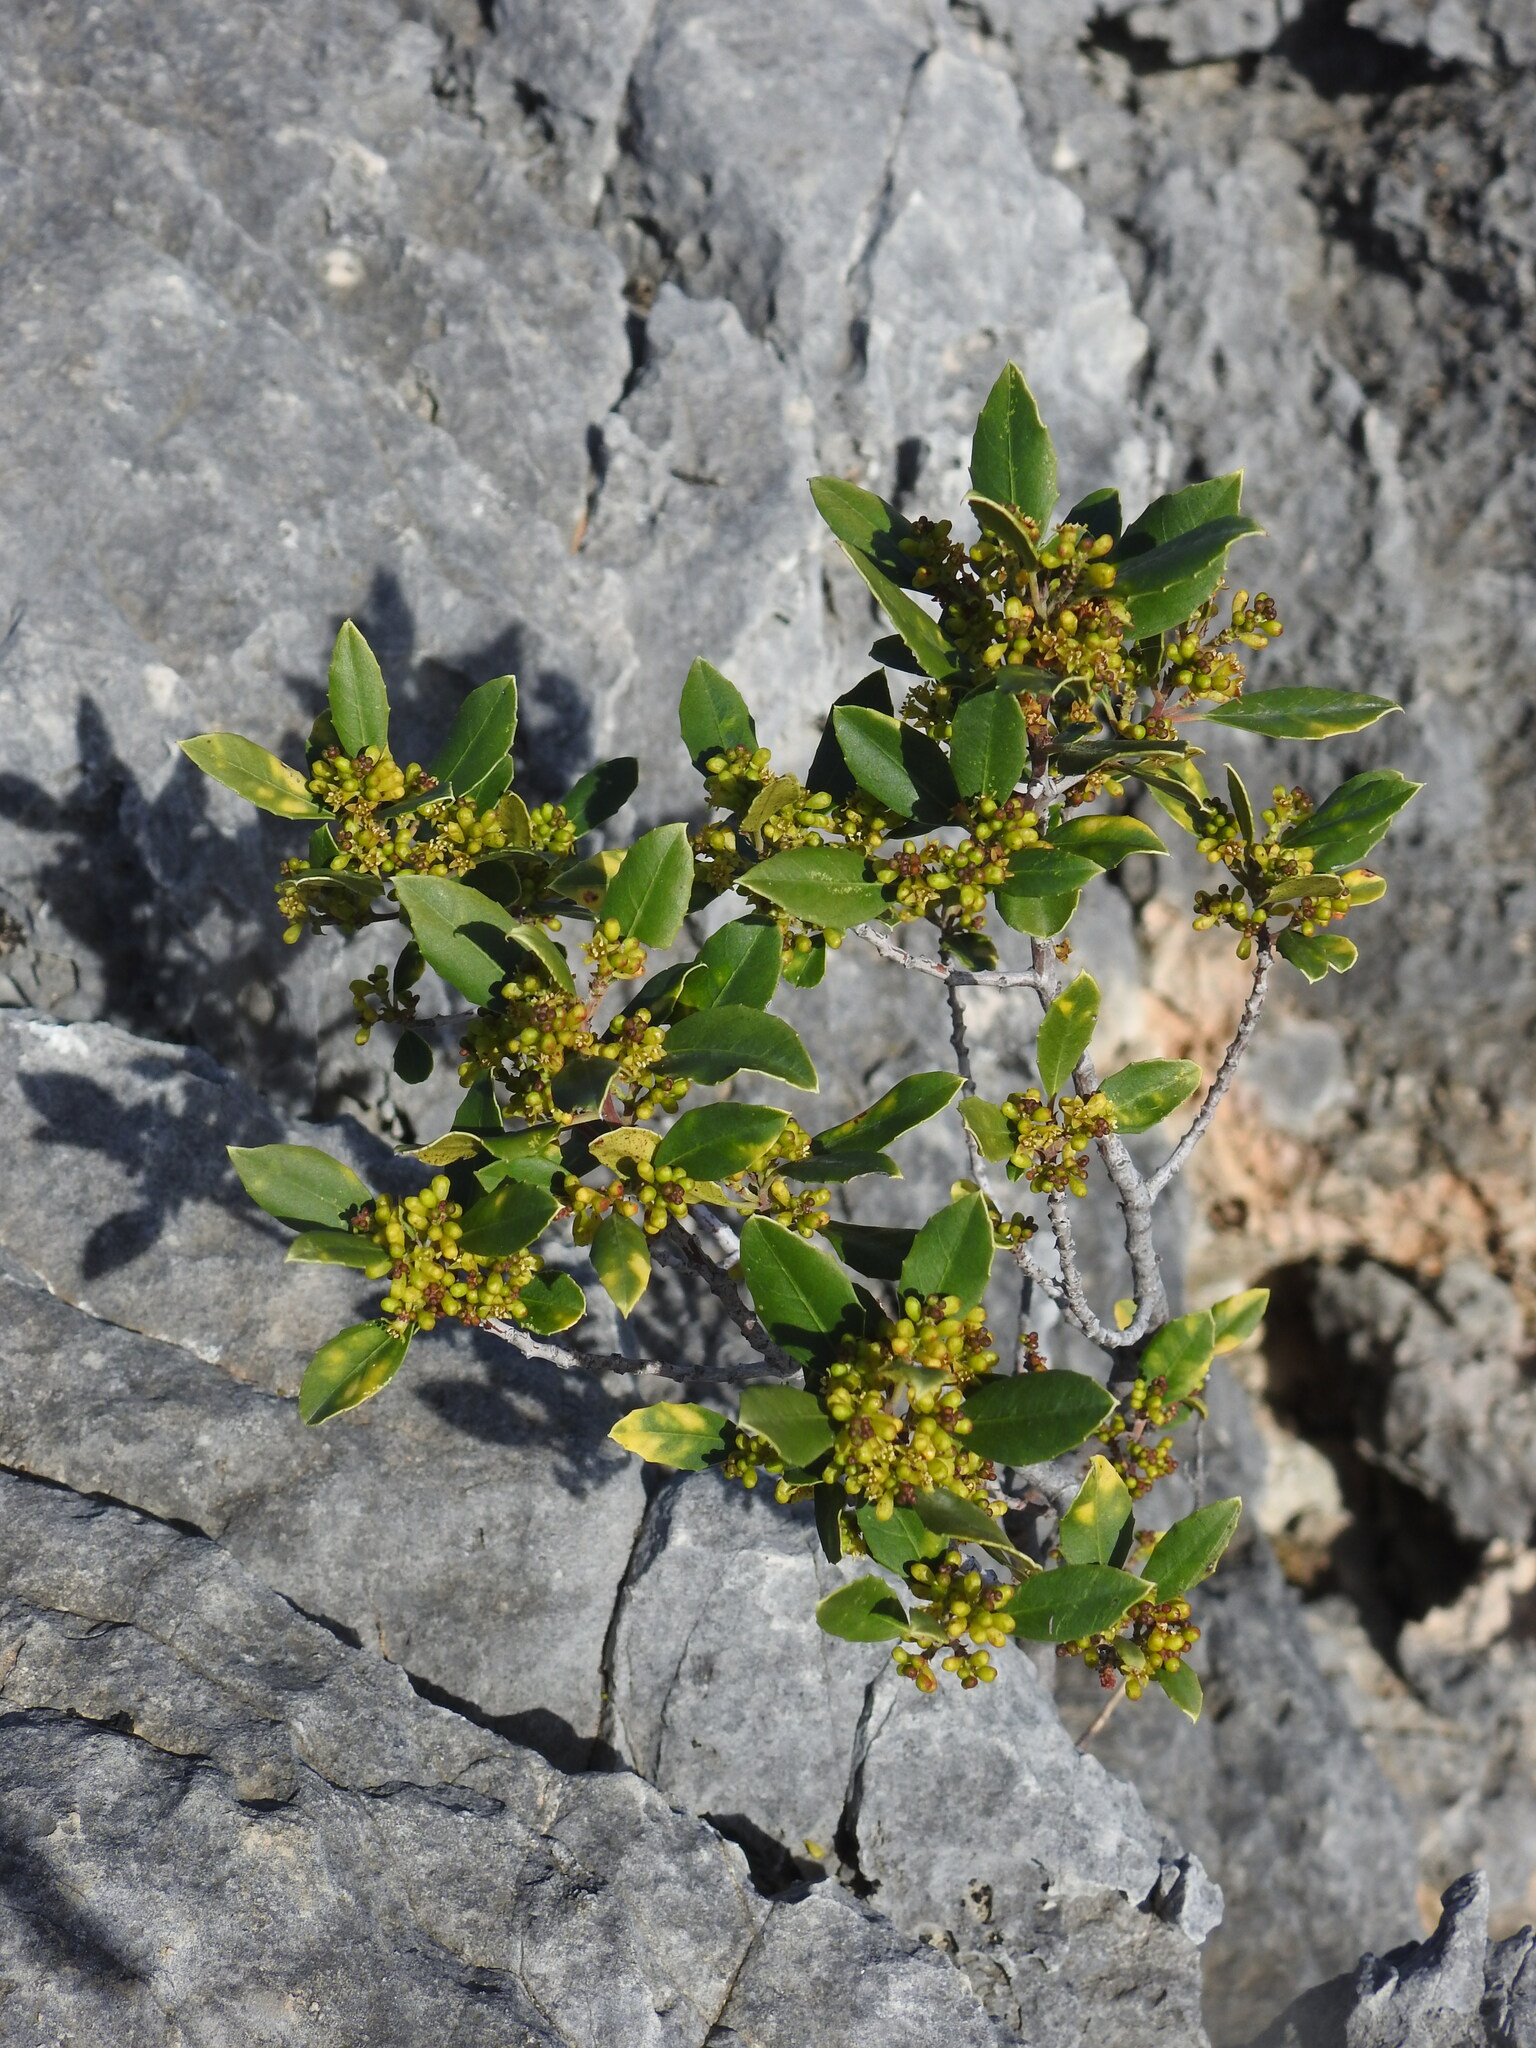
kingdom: Plantae
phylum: Tracheophyta
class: Magnoliopsida
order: Rosales
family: Rhamnaceae
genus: Rhamnus
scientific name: Rhamnus alaternus
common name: Mediterranean buckthorn
